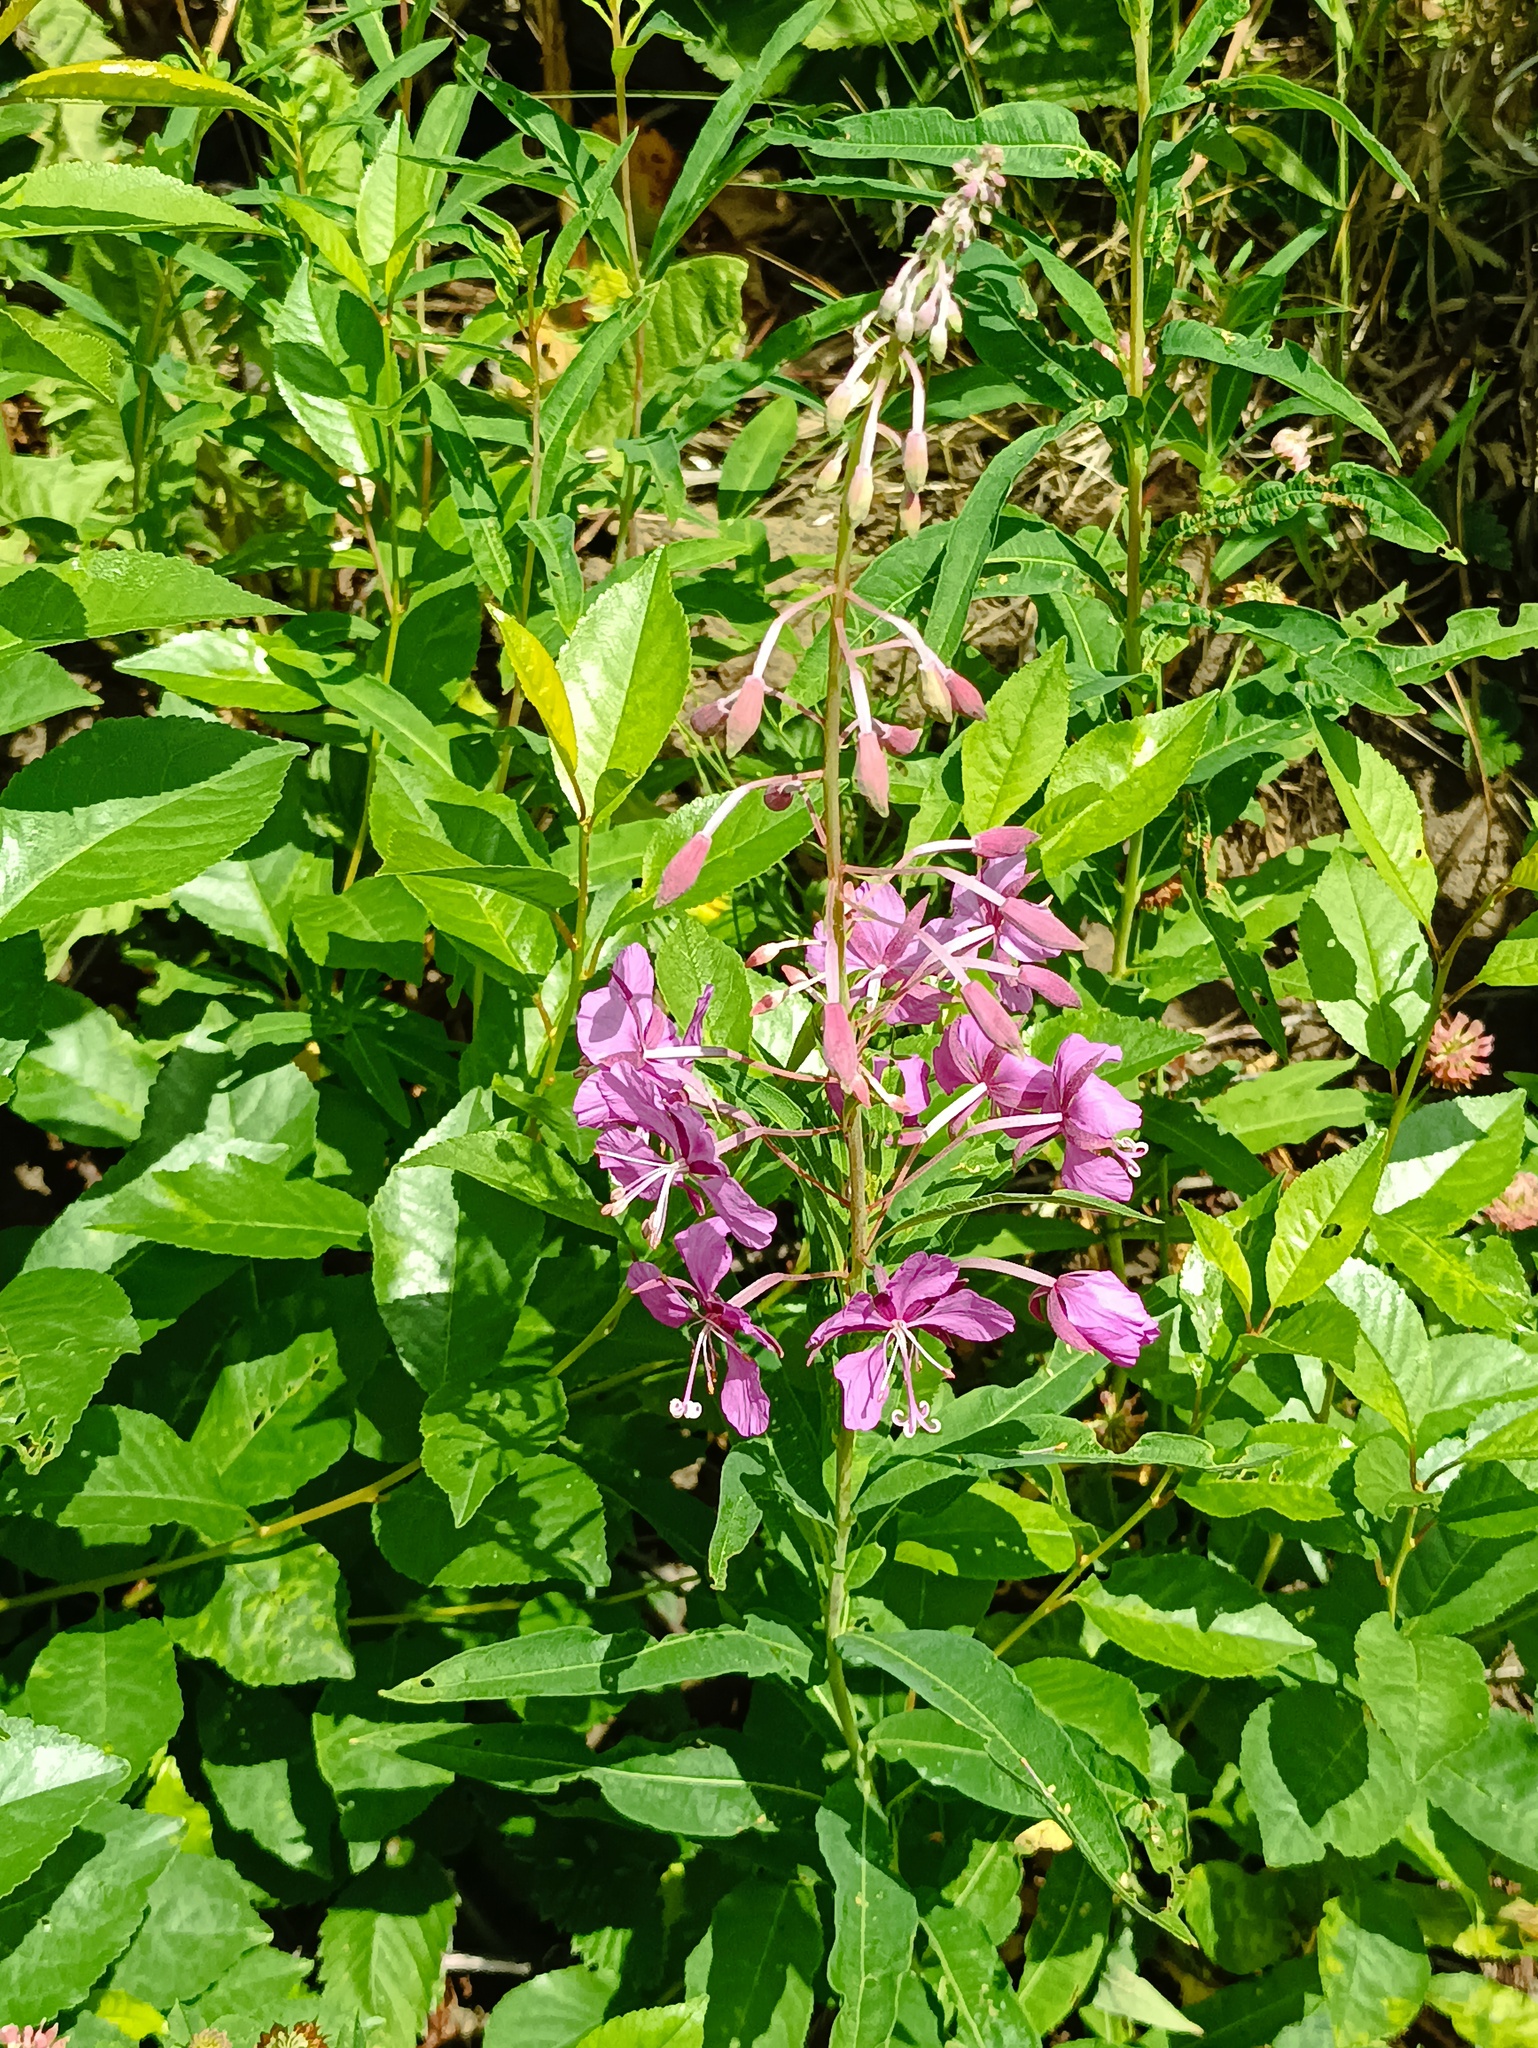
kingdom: Plantae
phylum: Tracheophyta
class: Magnoliopsida
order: Myrtales
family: Onagraceae
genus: Chamaenerion
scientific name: Chamaenerion angustifolium
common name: Fireweed
